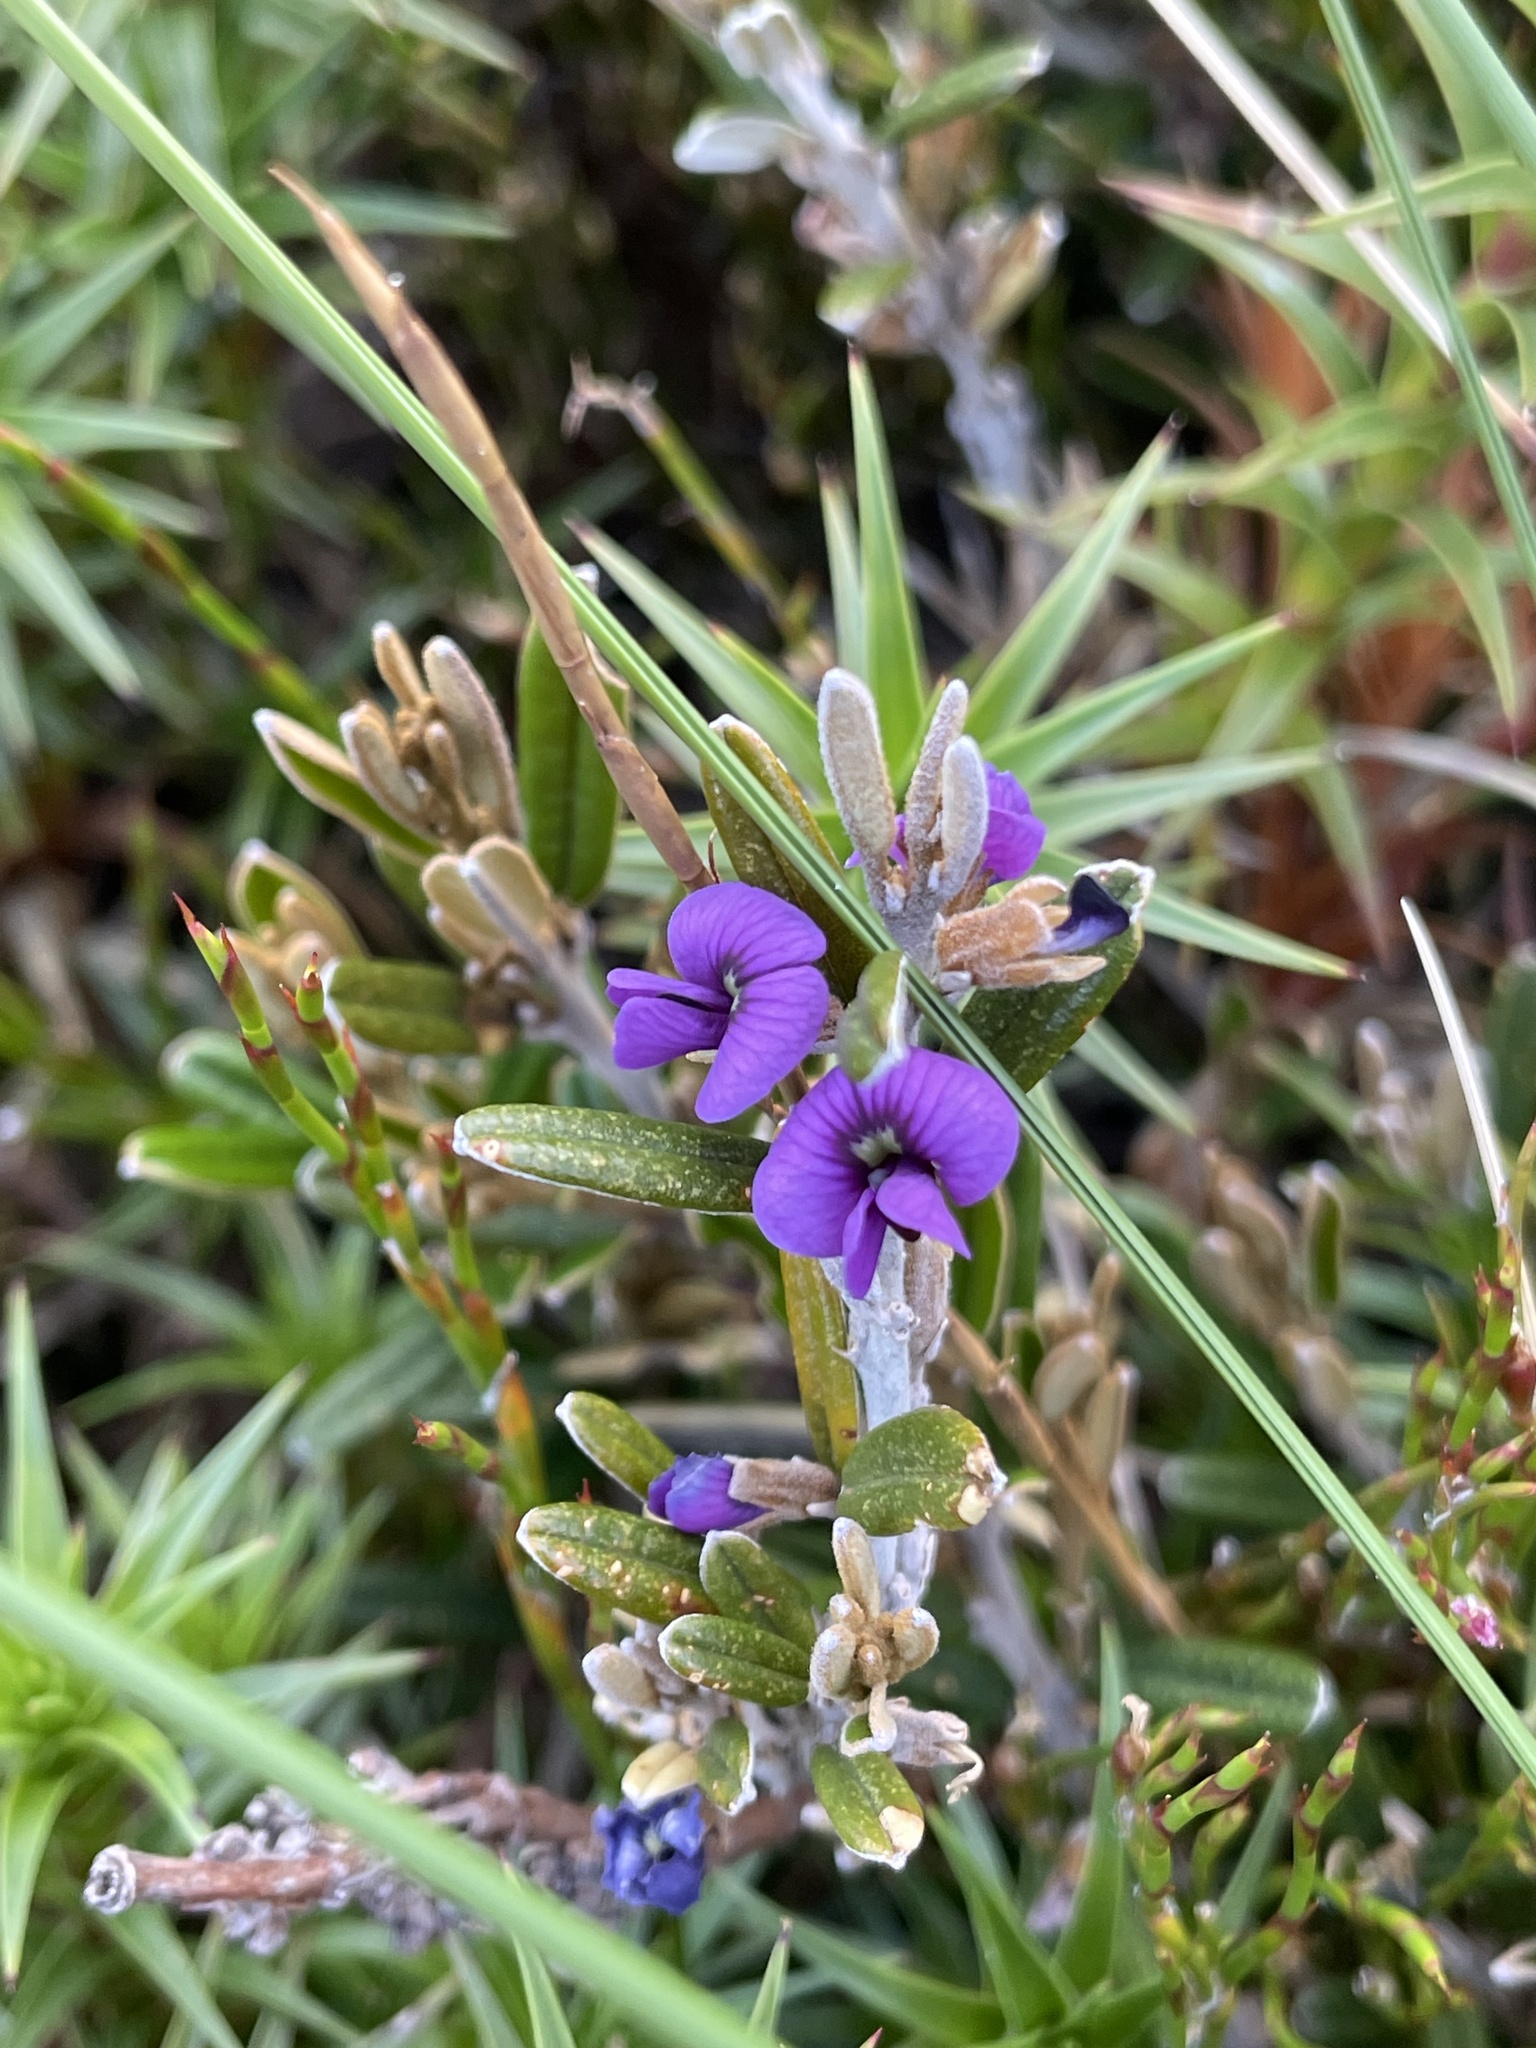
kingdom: Plantae
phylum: Tracheophyta
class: Magnoliopsida
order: Fabales
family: Fabaceae
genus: Hovea
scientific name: Hovea montana
